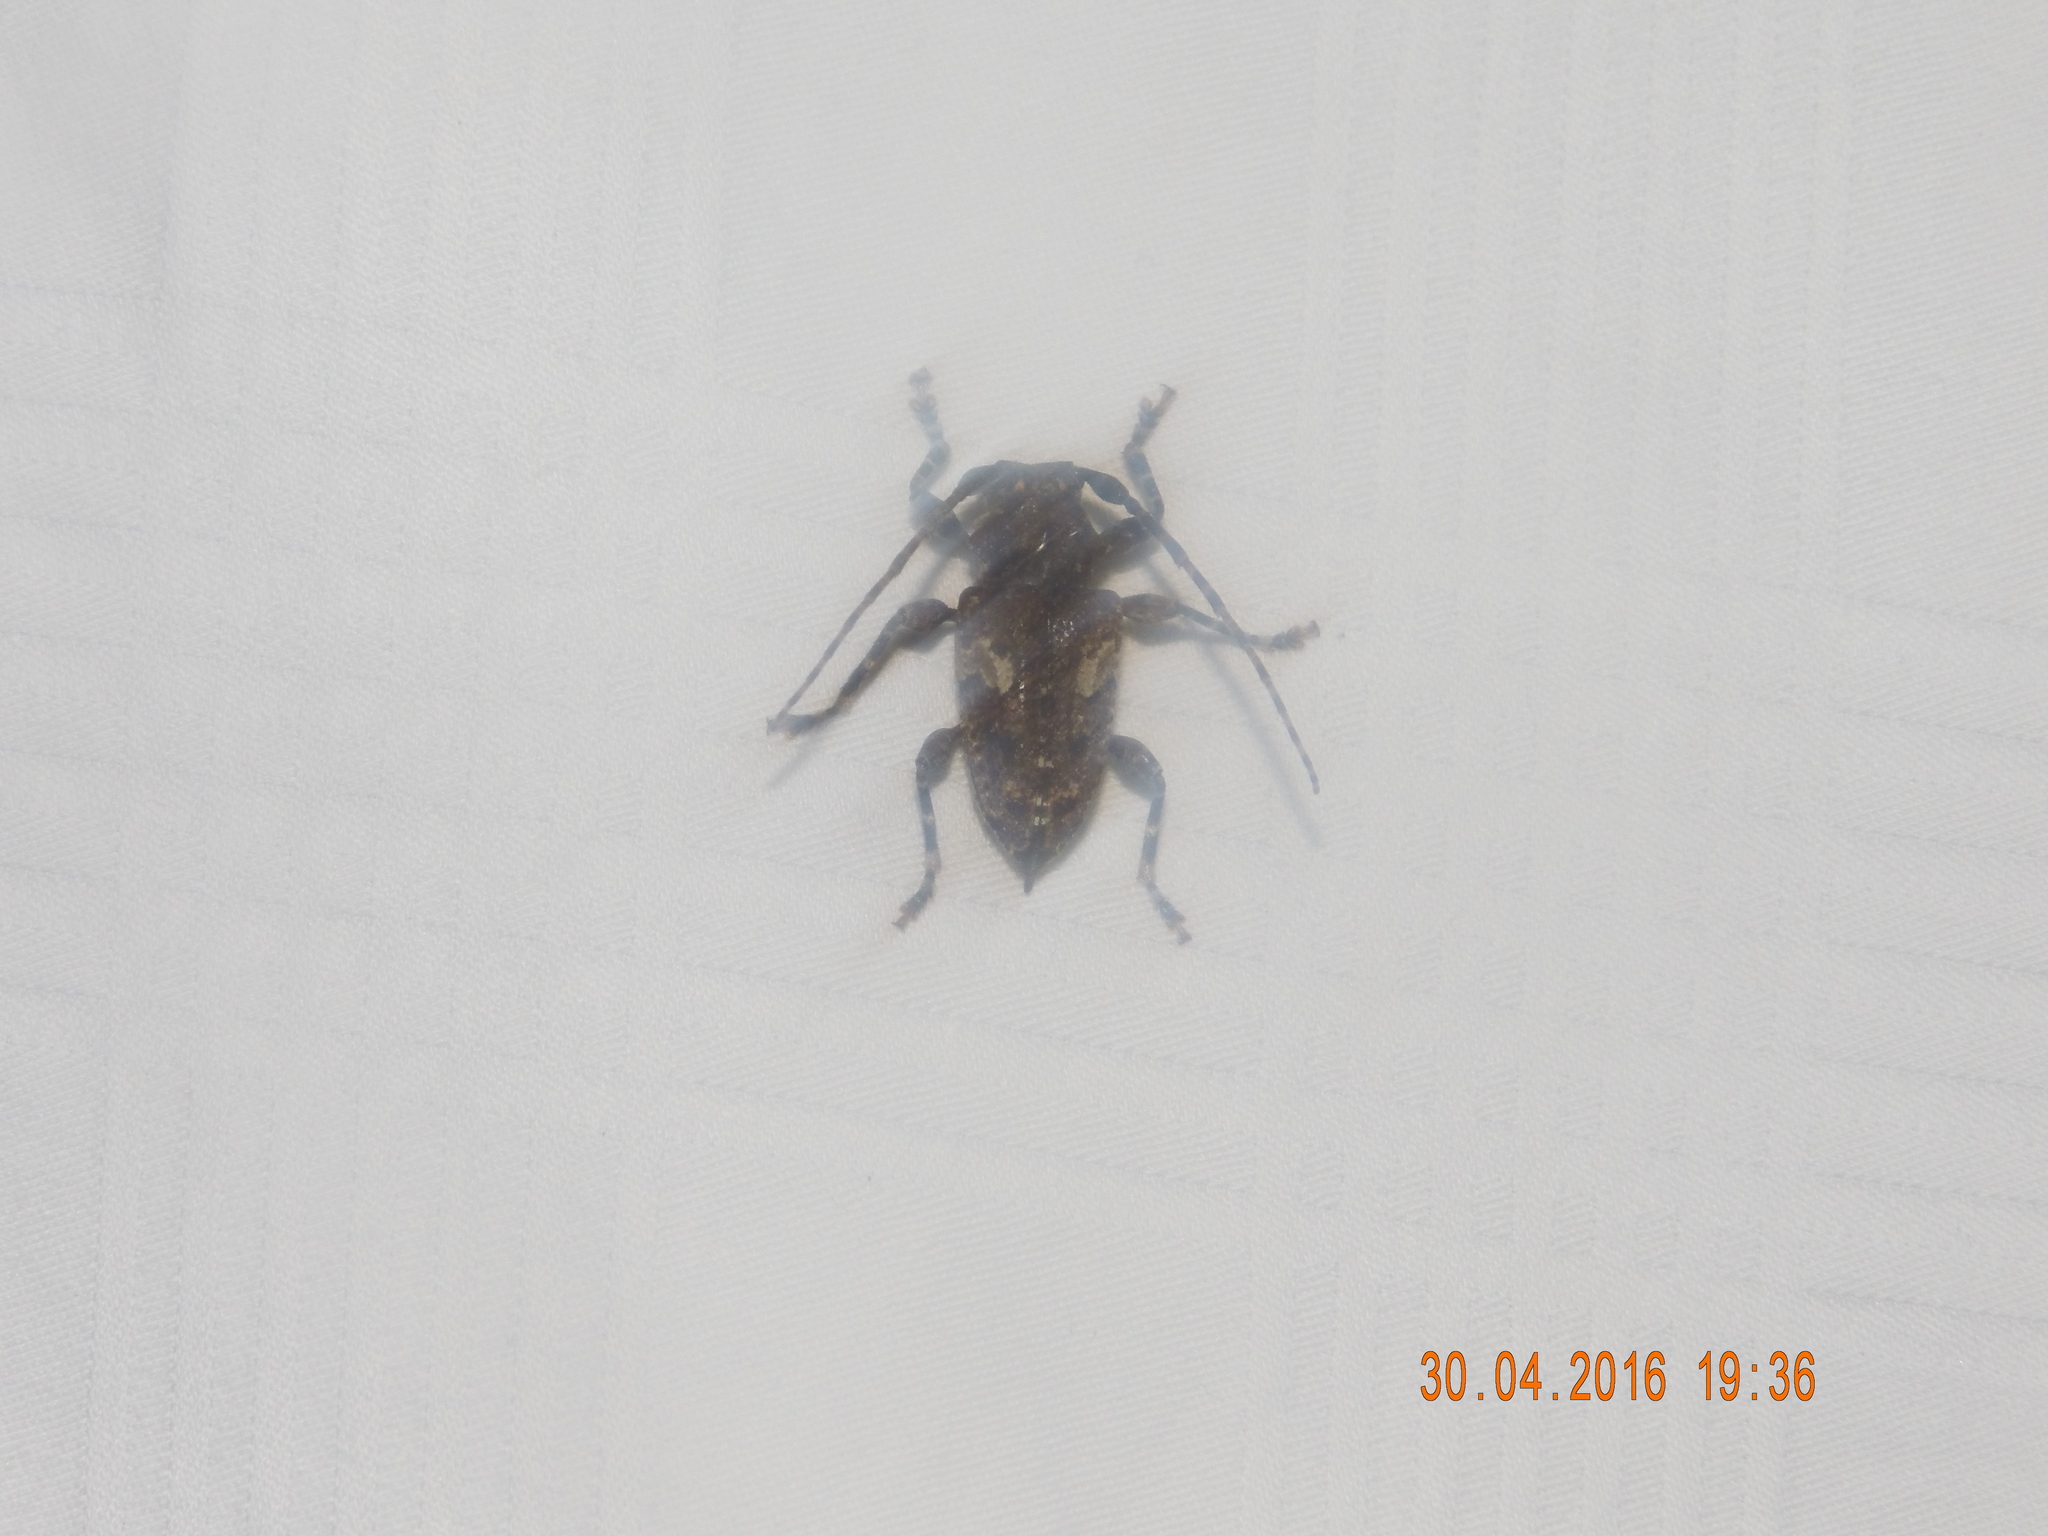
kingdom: Animalia
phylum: Arthropoda
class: Insecta
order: Coleoptera
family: Cerambycidae
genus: Psapharochrus
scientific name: Psapharochrus circumflexus
